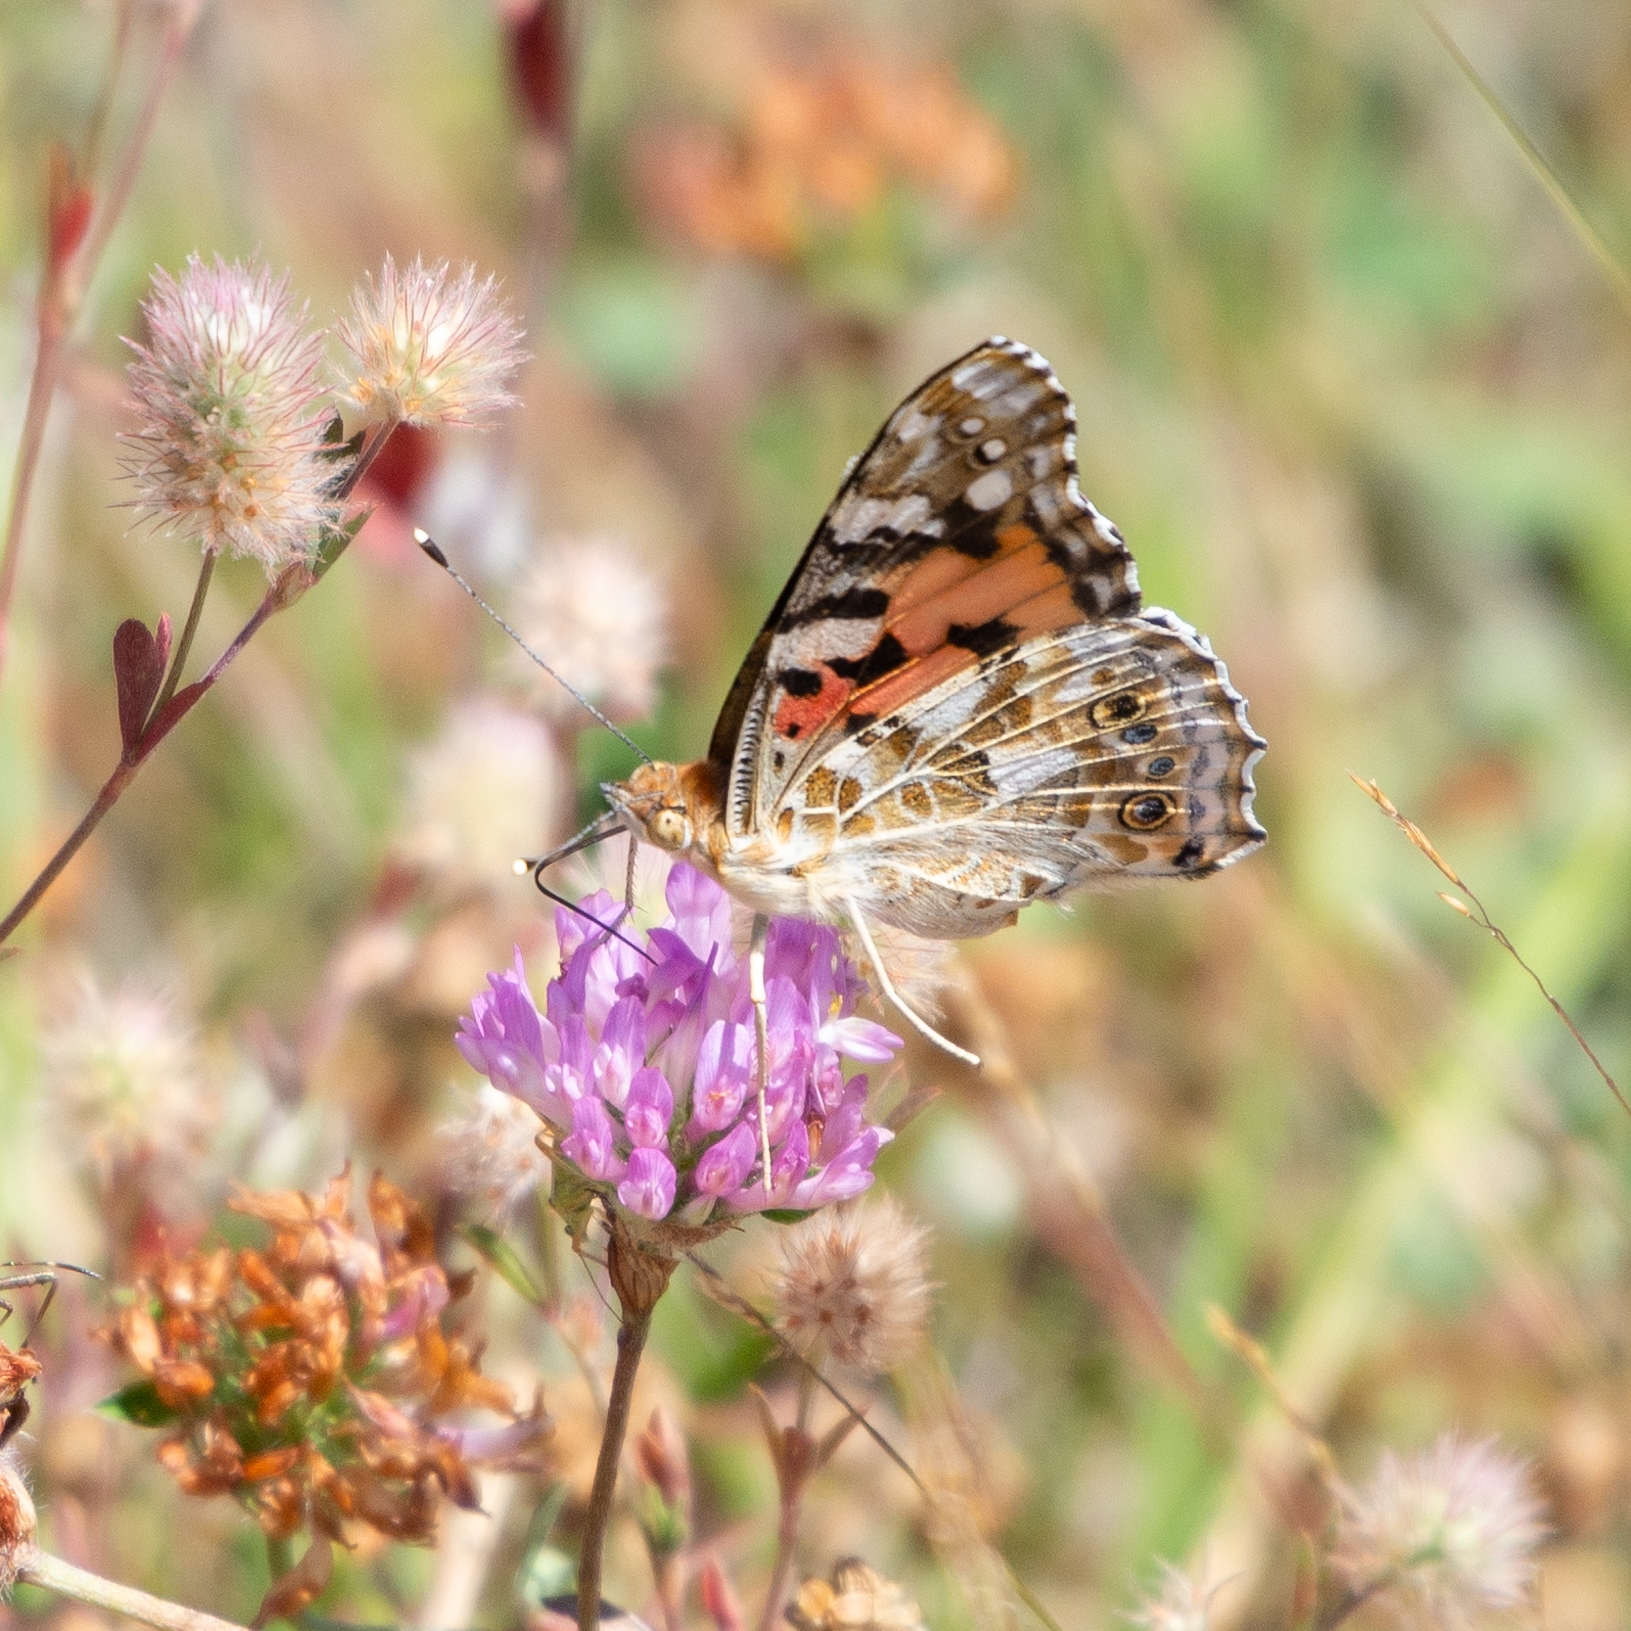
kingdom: Animalia
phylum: Arthropoda
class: Insecta
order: Lepidoptera
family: Nymphalidae
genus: Vanessa
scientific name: Vanessa cardui
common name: Painted lady
